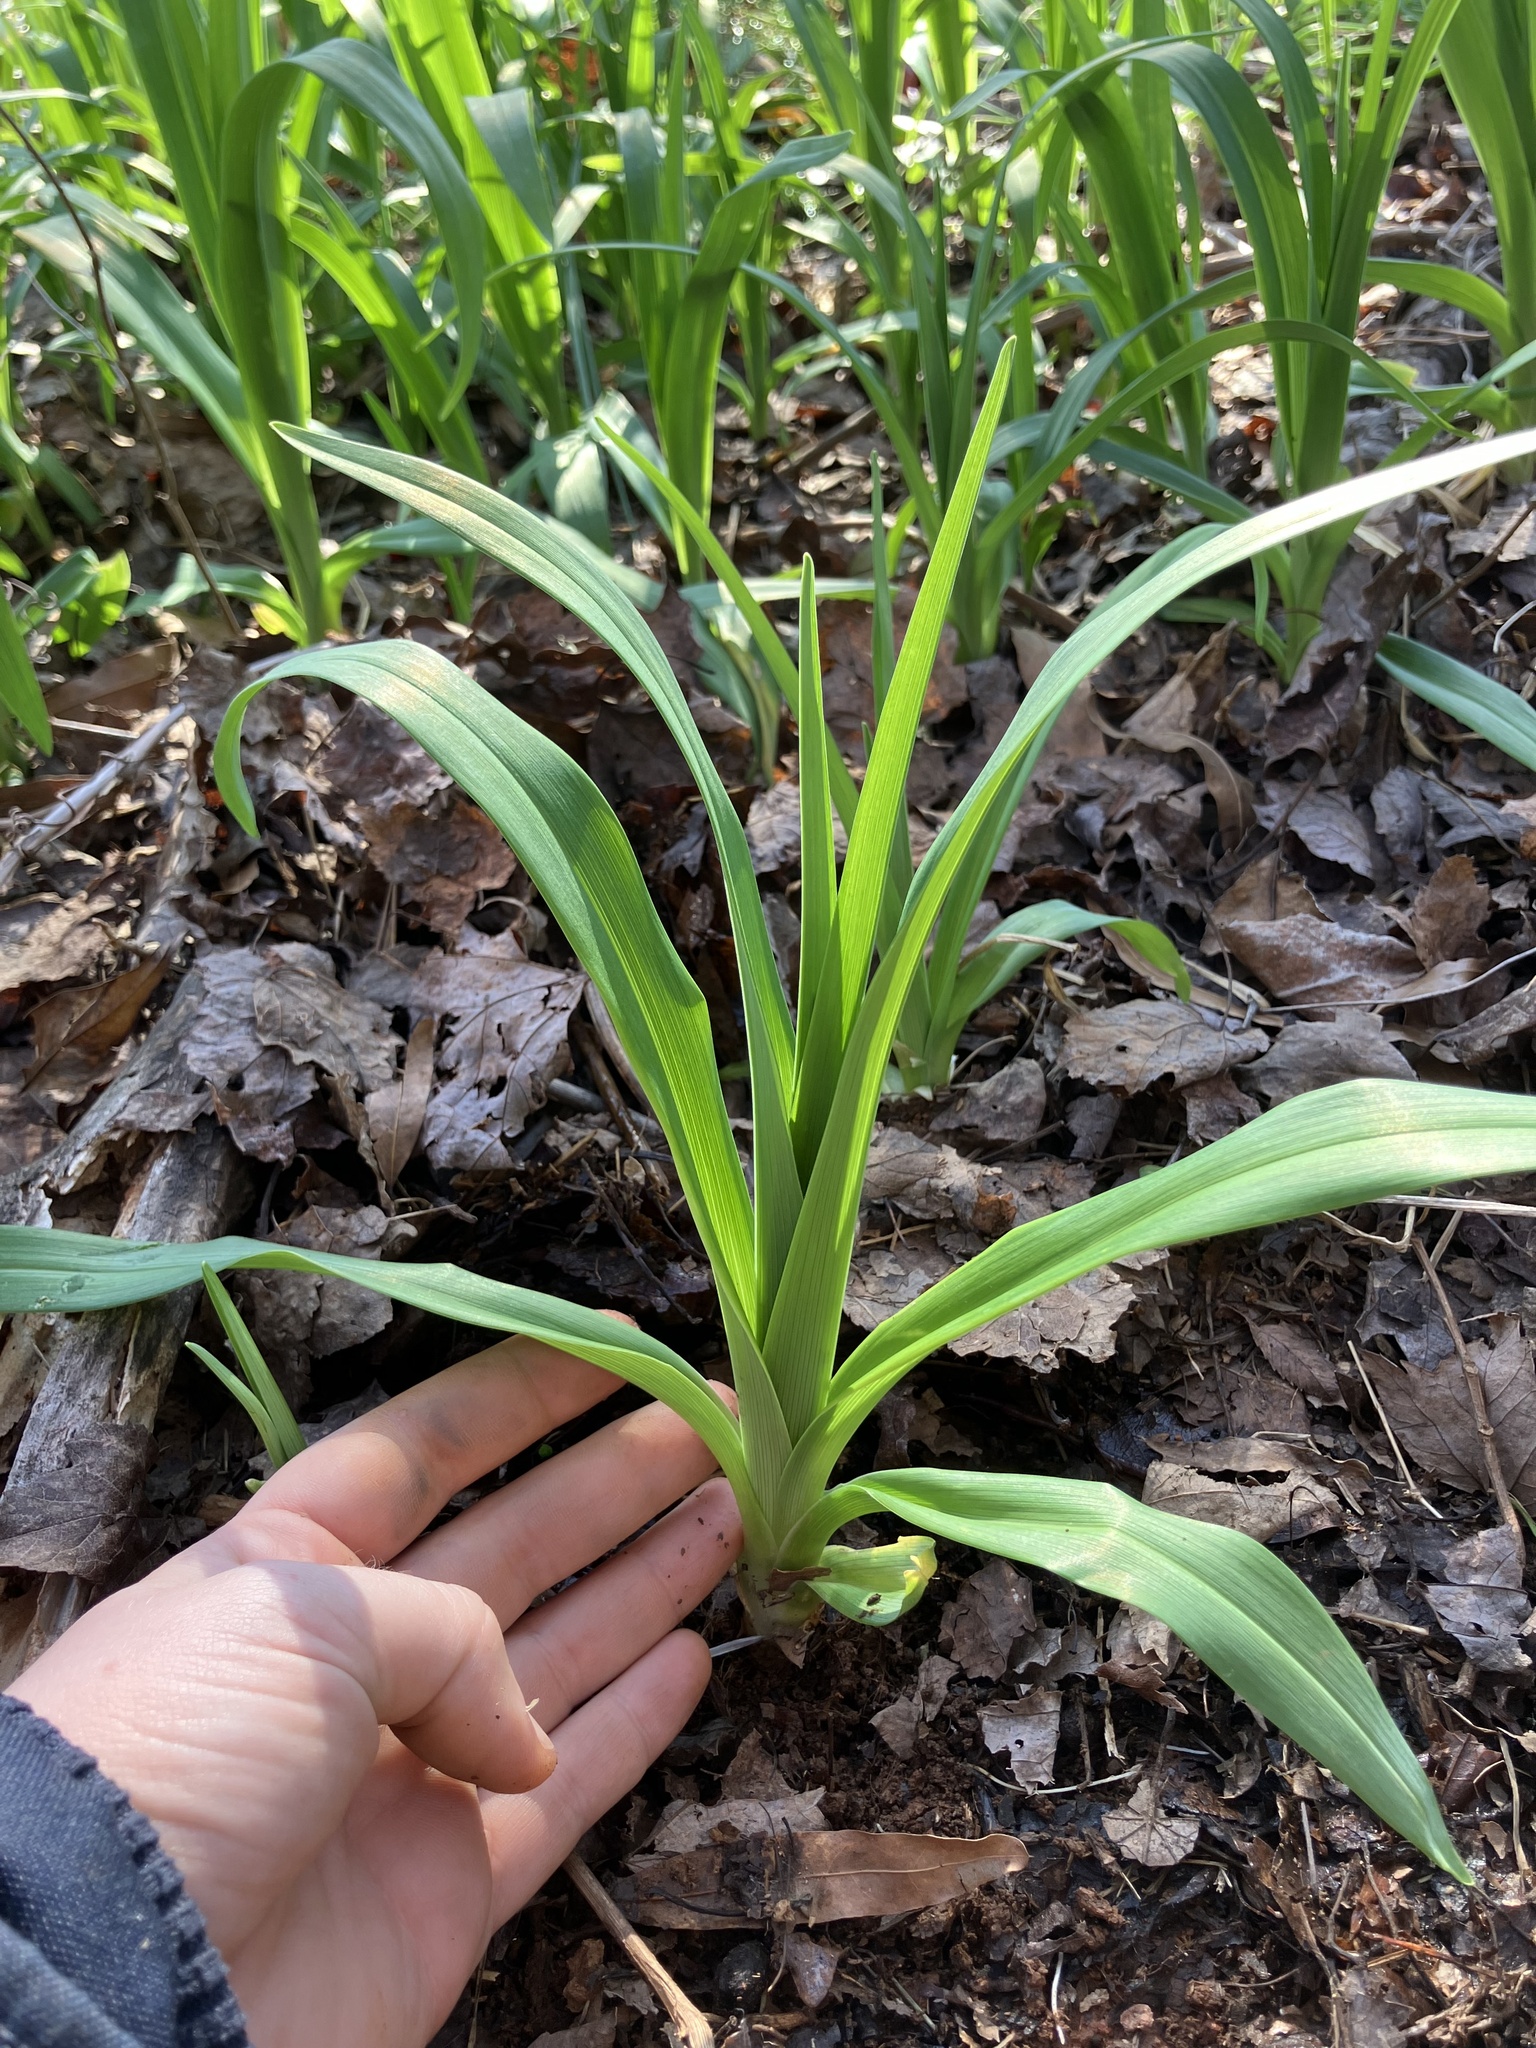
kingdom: Plantae
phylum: Tracheophyta
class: Liliopsida
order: Asparagales
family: Asphodelaceae
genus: Hemerocallis
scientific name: Hemerocallis fulva
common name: Orange day-lily
